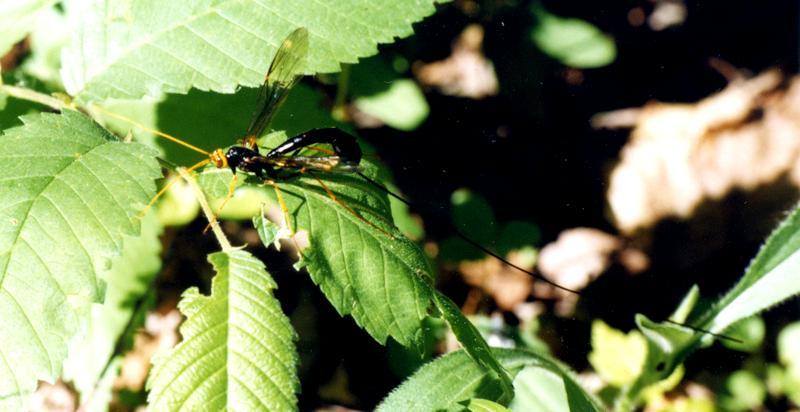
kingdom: Animalia
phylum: Arthropoda
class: Insecta
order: Hymenoptera
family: Ichneumonidae
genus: Megarhyssa
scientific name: Megarhyssa atrata
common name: Black giant ichneumonid wasp
